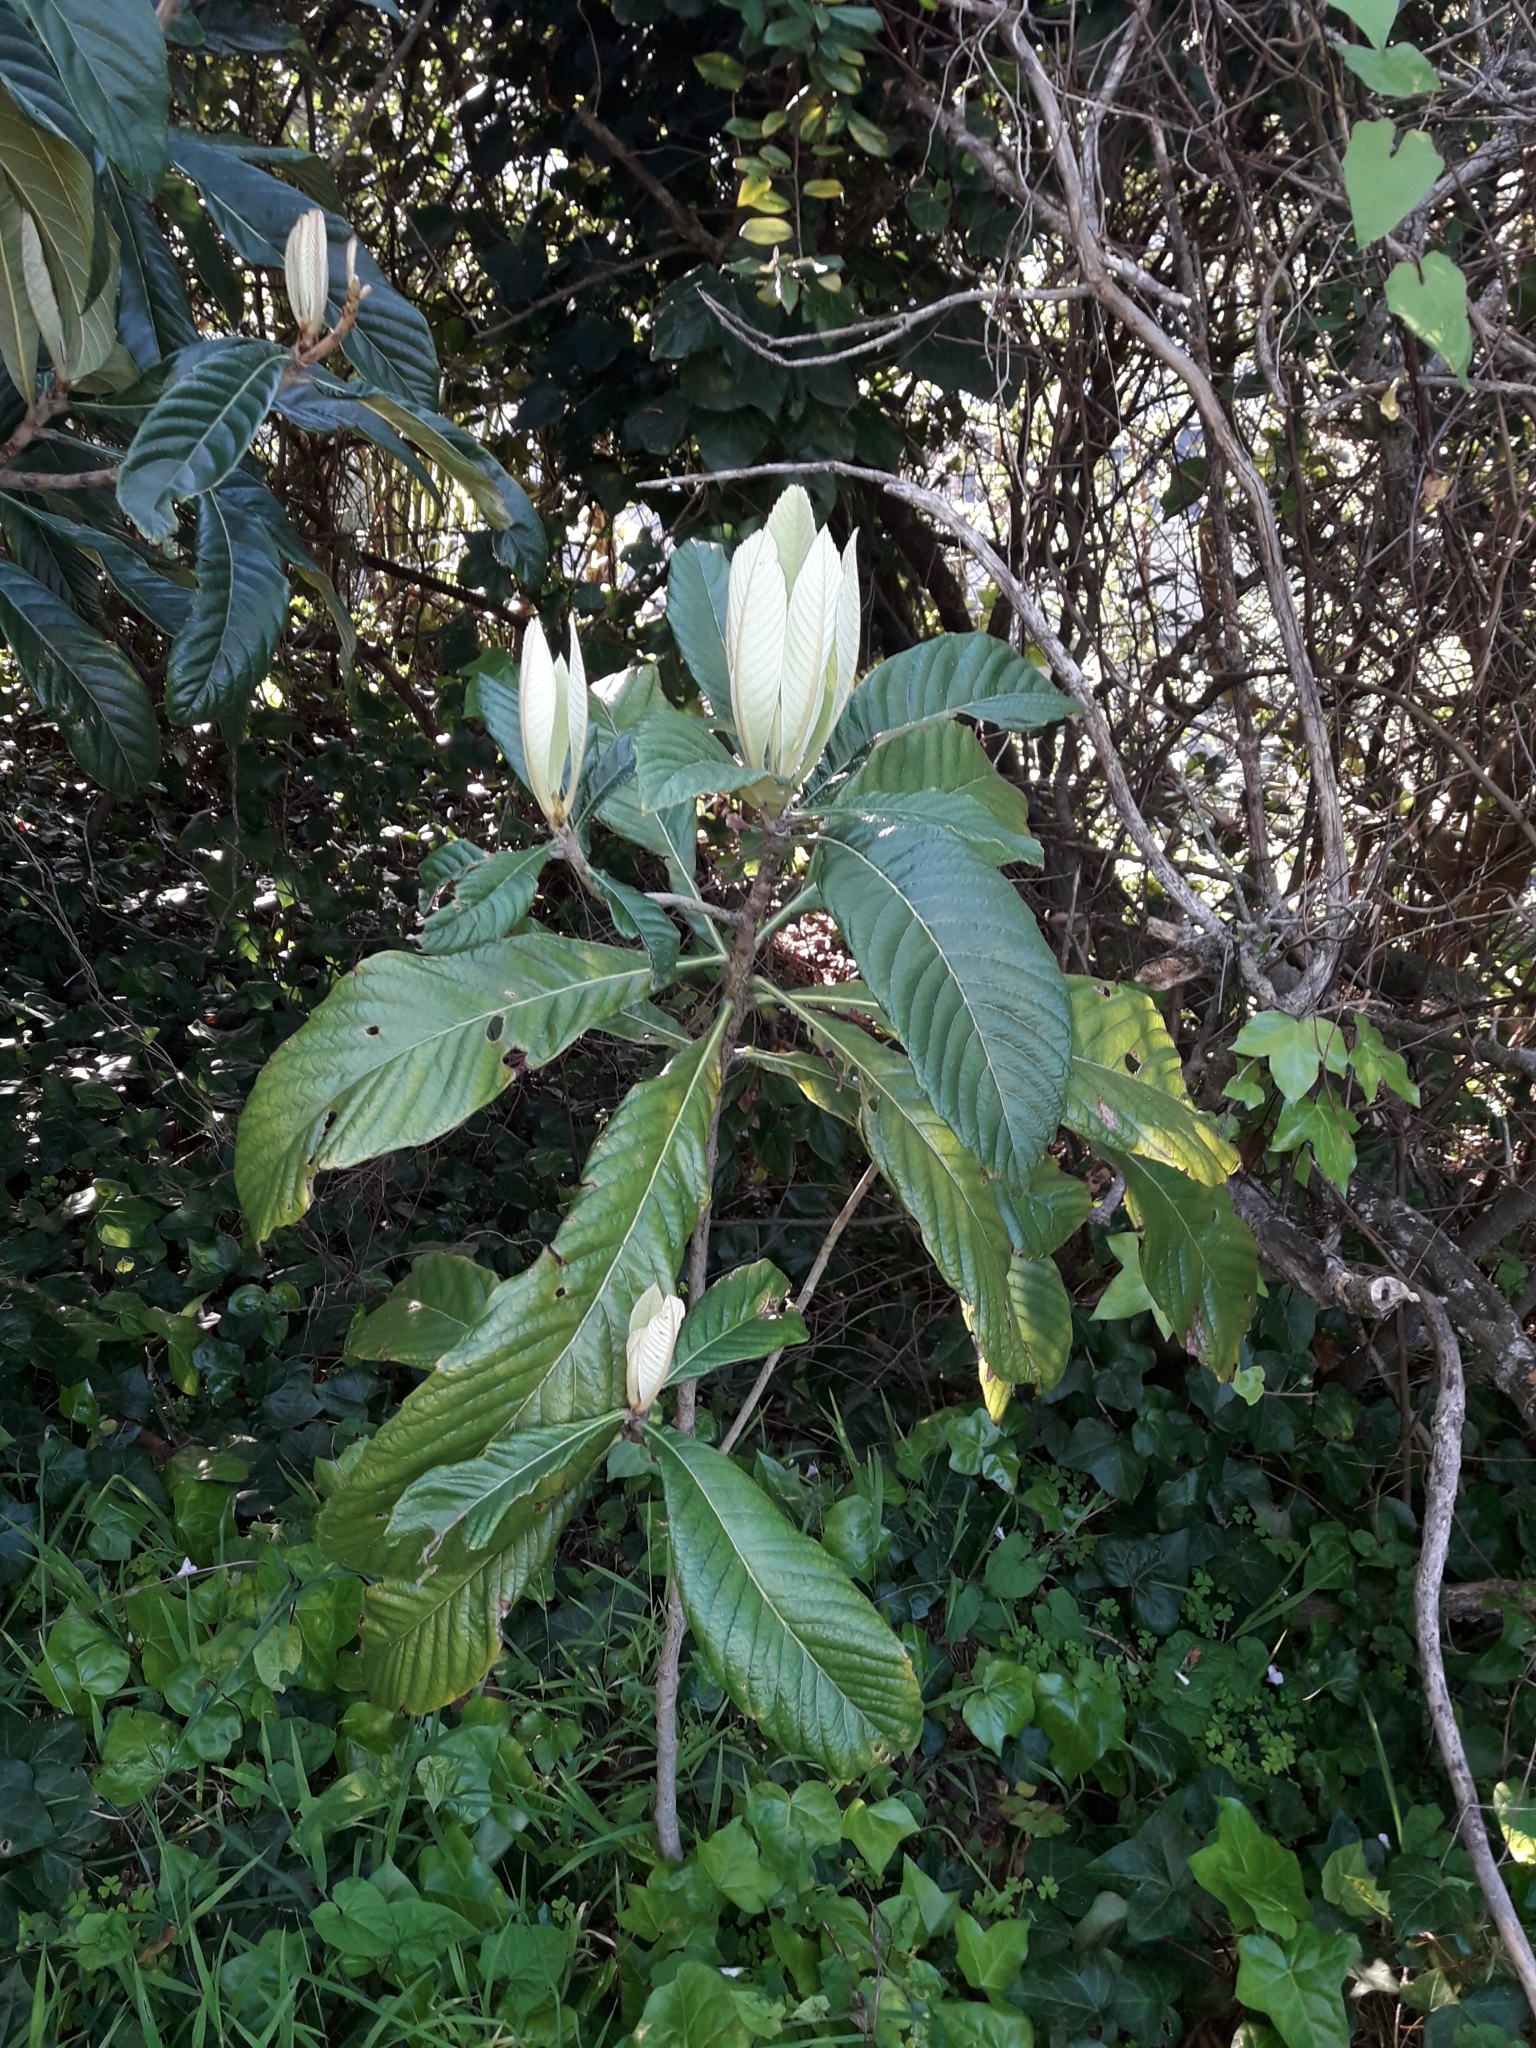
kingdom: Plantae
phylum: Tracheophyta
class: Magnoliopsida
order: Rosales
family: Rosaceae
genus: Rhaphiolepis
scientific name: Rhaphiolepis bibas
